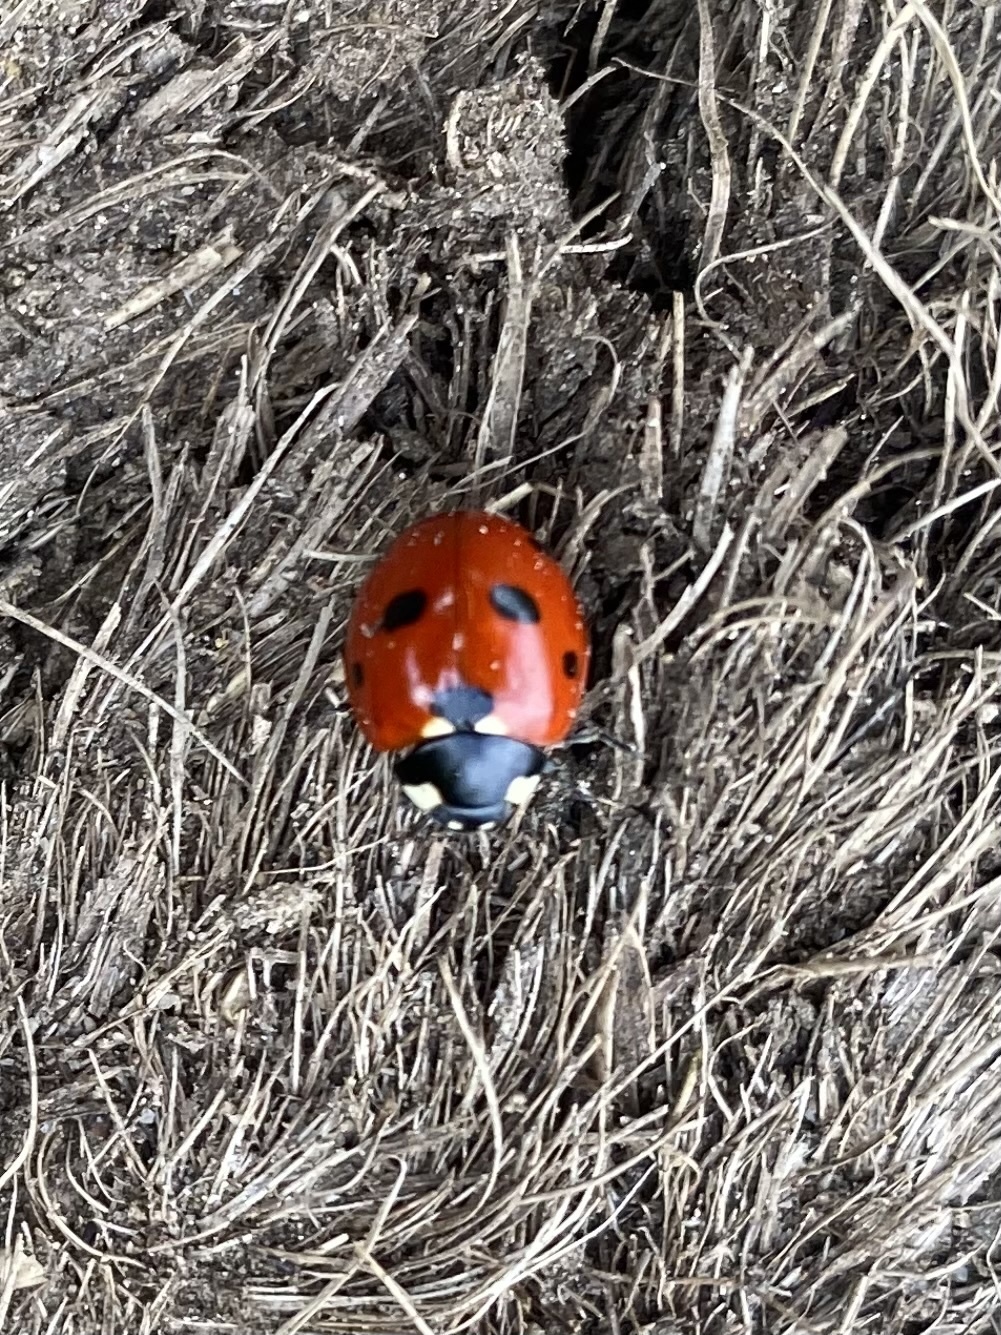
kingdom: Animalia
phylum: Arthropoda
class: Insecta
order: Coleoptera
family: Coccinellidae
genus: Coccinella
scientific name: Coccinella septempunctata
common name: Sevenspotted lady beetle
